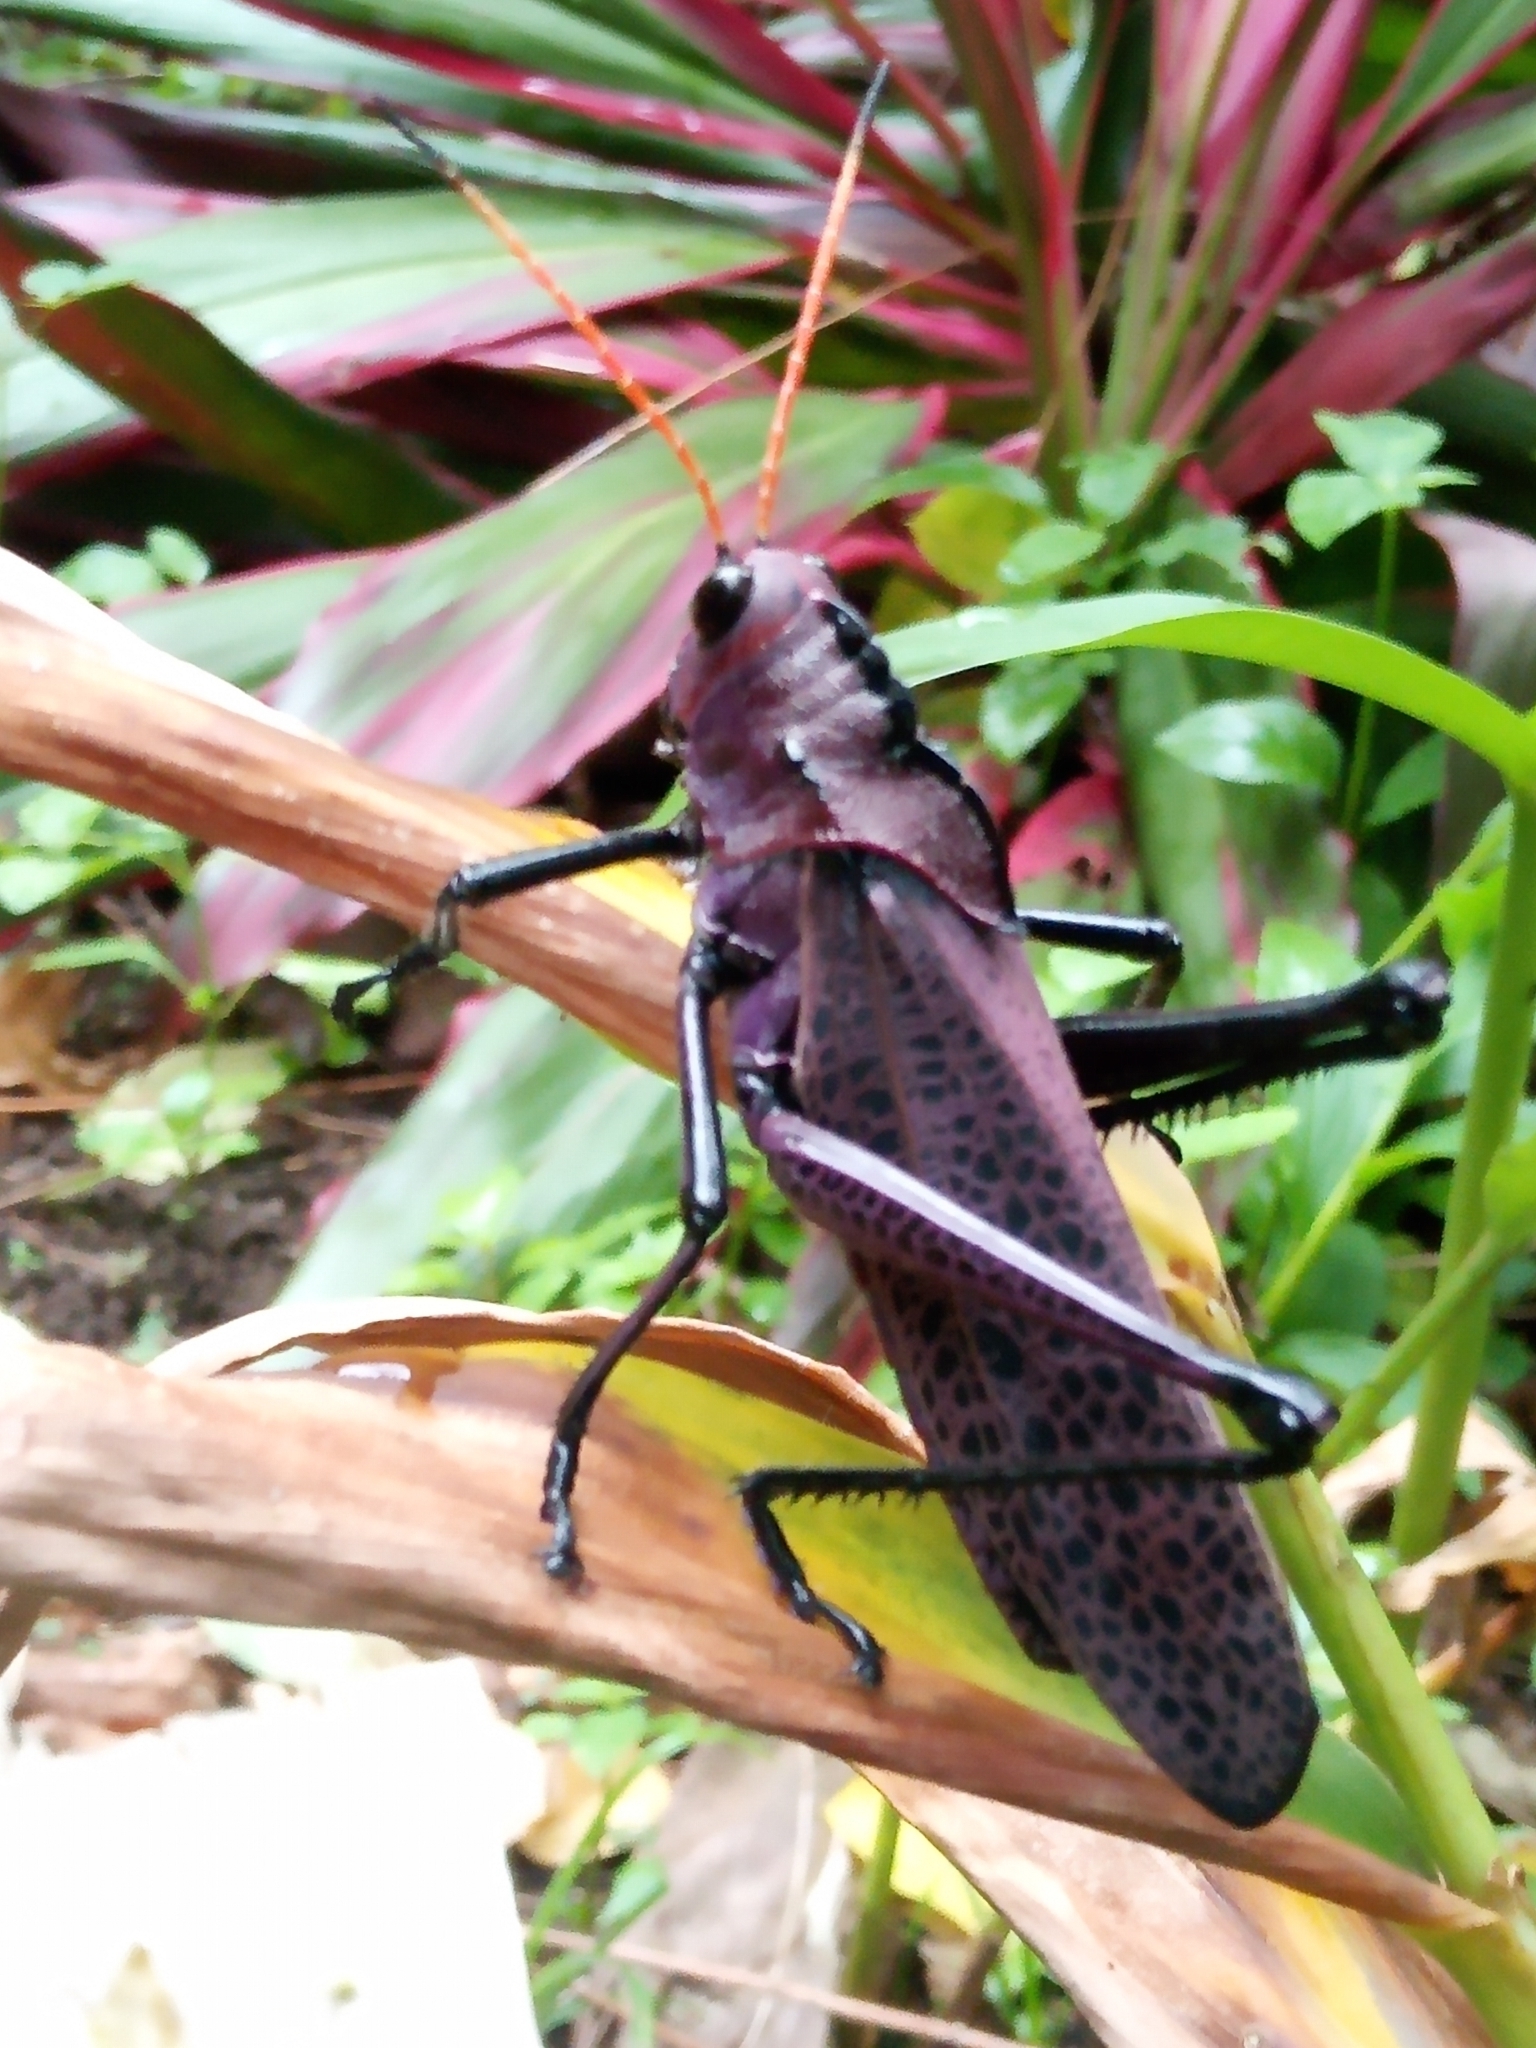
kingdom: Animalia
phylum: Arthropoda
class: Insecta
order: Orthoptera
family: Romaleidae
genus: Romalea
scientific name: Romalea
